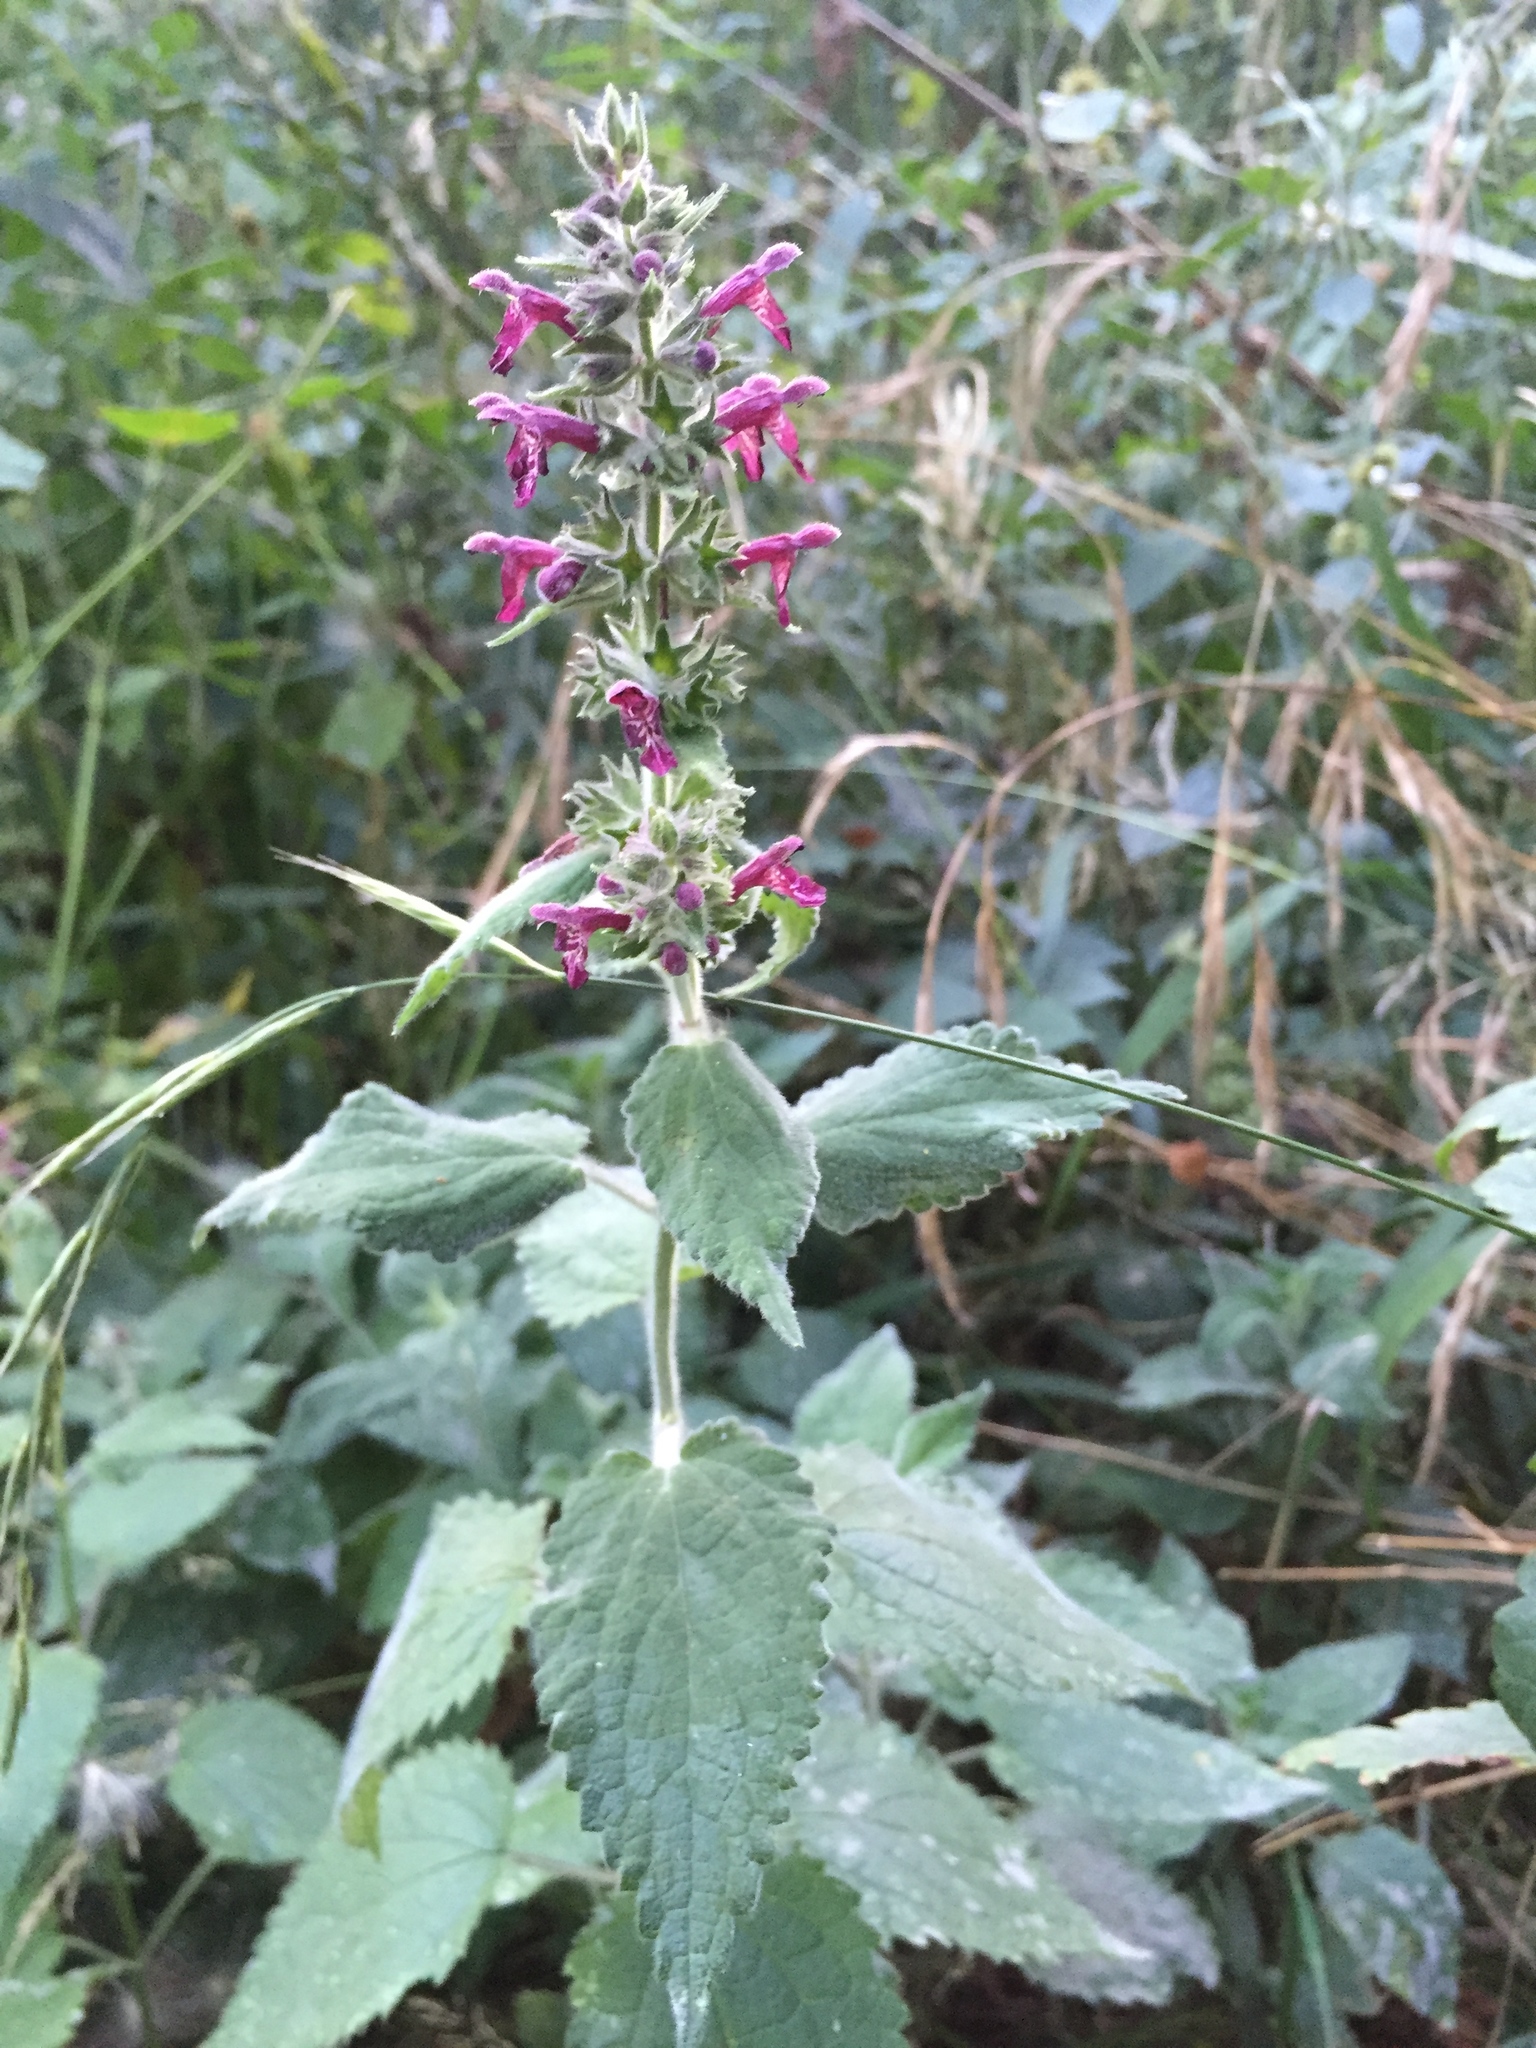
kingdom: Plantae
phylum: Tracheophyta
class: Magnoliopsida
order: Lamiales
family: Lamiaceae
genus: Stachys
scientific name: Stachys sylvatica
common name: Hedge woundwort
